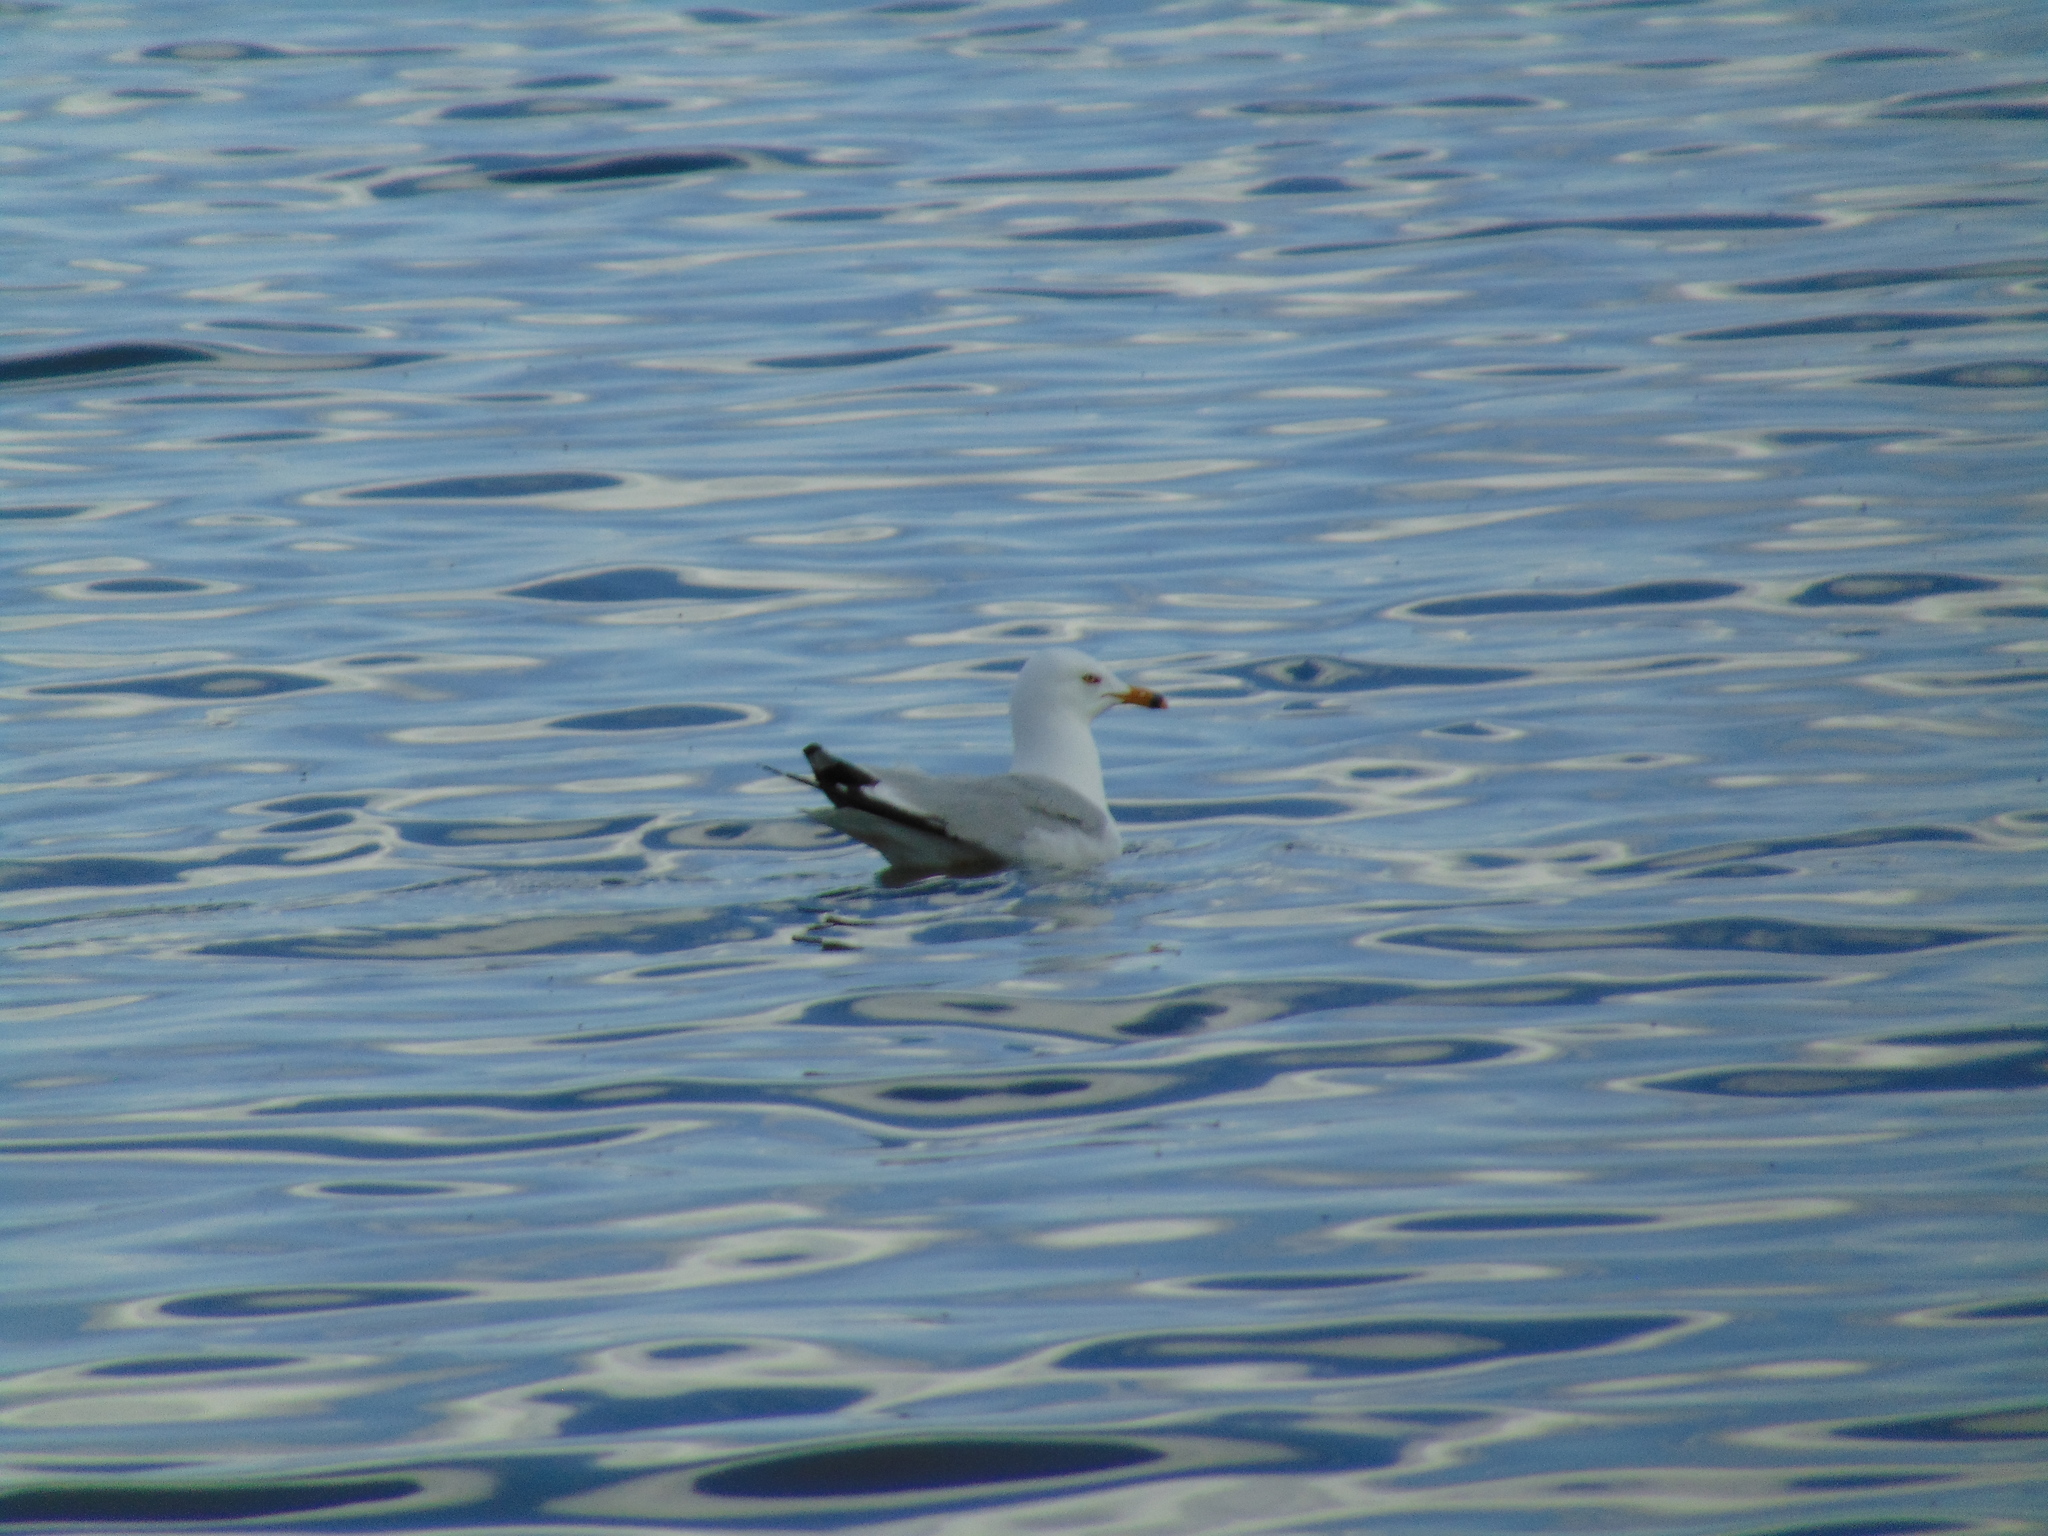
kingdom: Animalia
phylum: Chordata
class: Aves
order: Charadriiformes
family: Laridae
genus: Larus
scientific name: Larus delawarensis
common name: Ring-billed gull
